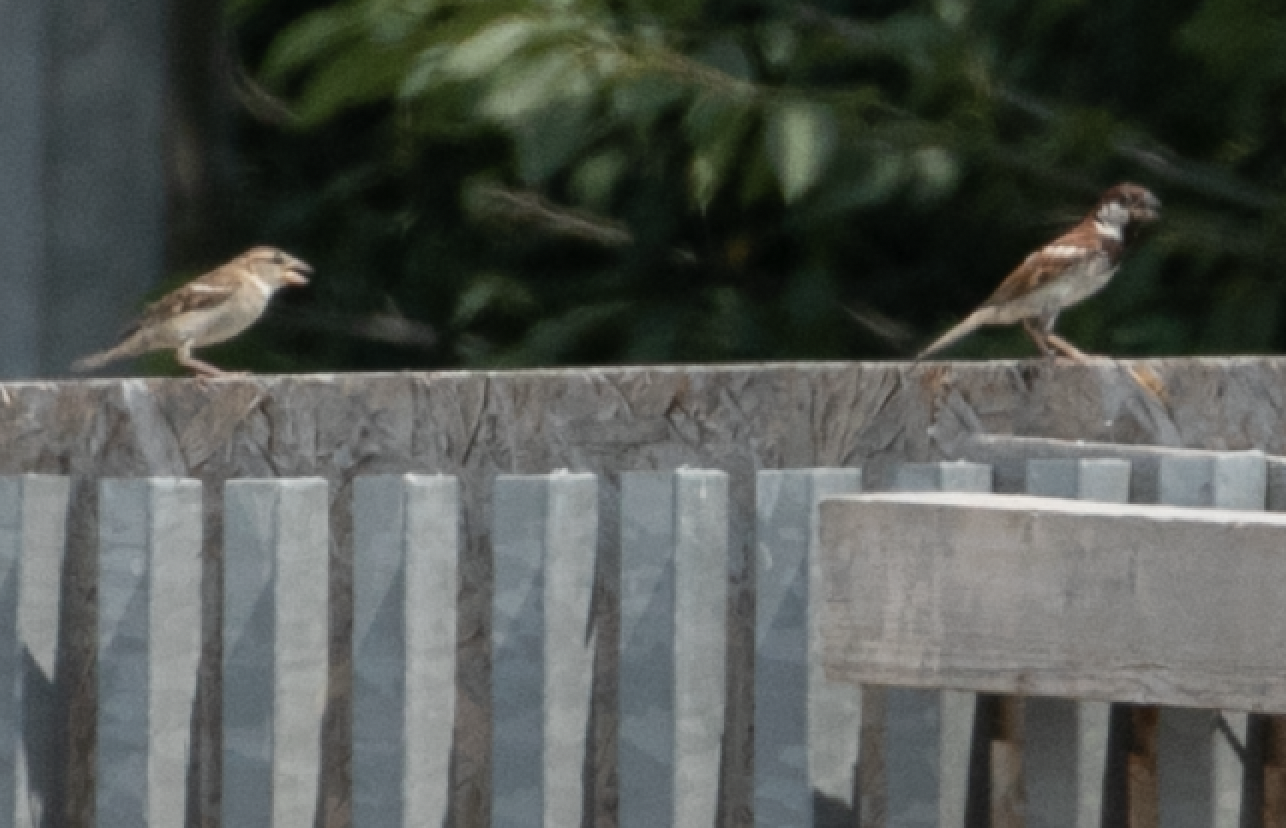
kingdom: Animalia
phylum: Chordata
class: Aves
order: Passeriformes
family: Passeridae
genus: Passer
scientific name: Passer italiae
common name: Italian sparrow
